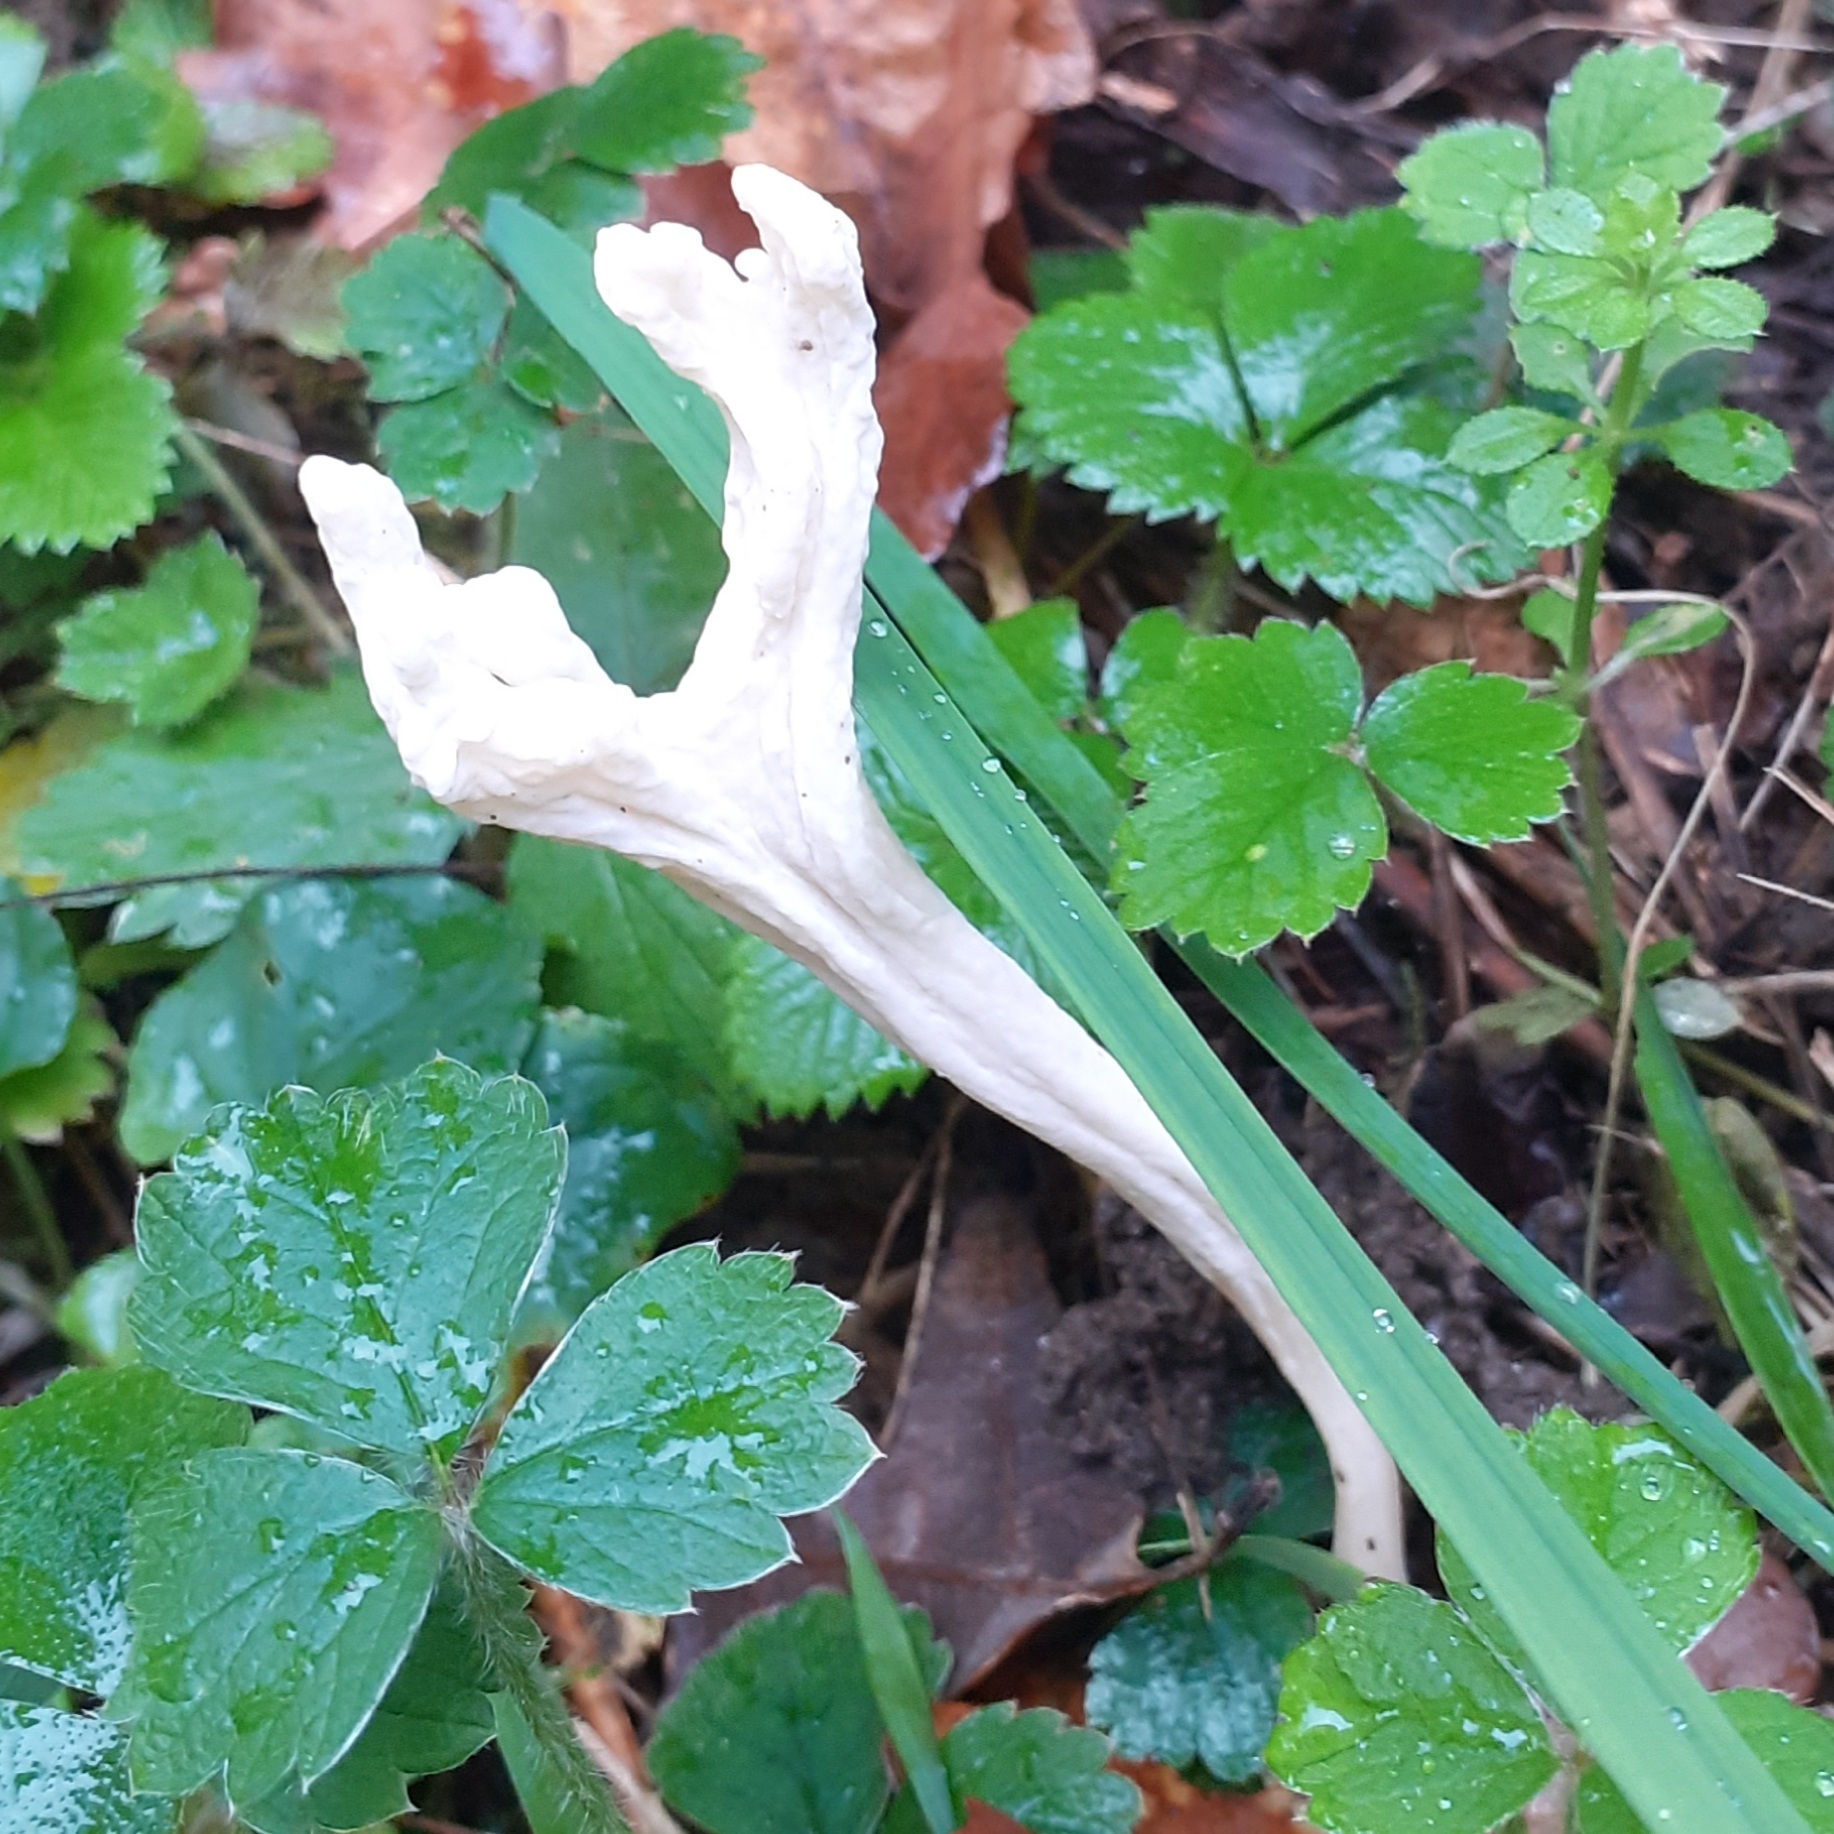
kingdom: Fungi
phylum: Basidiomycota
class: Agaricomycetes
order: Cantharellales
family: Hydnaceae
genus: Clavulina
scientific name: Clavulina rugosa
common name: Wrinkled club
